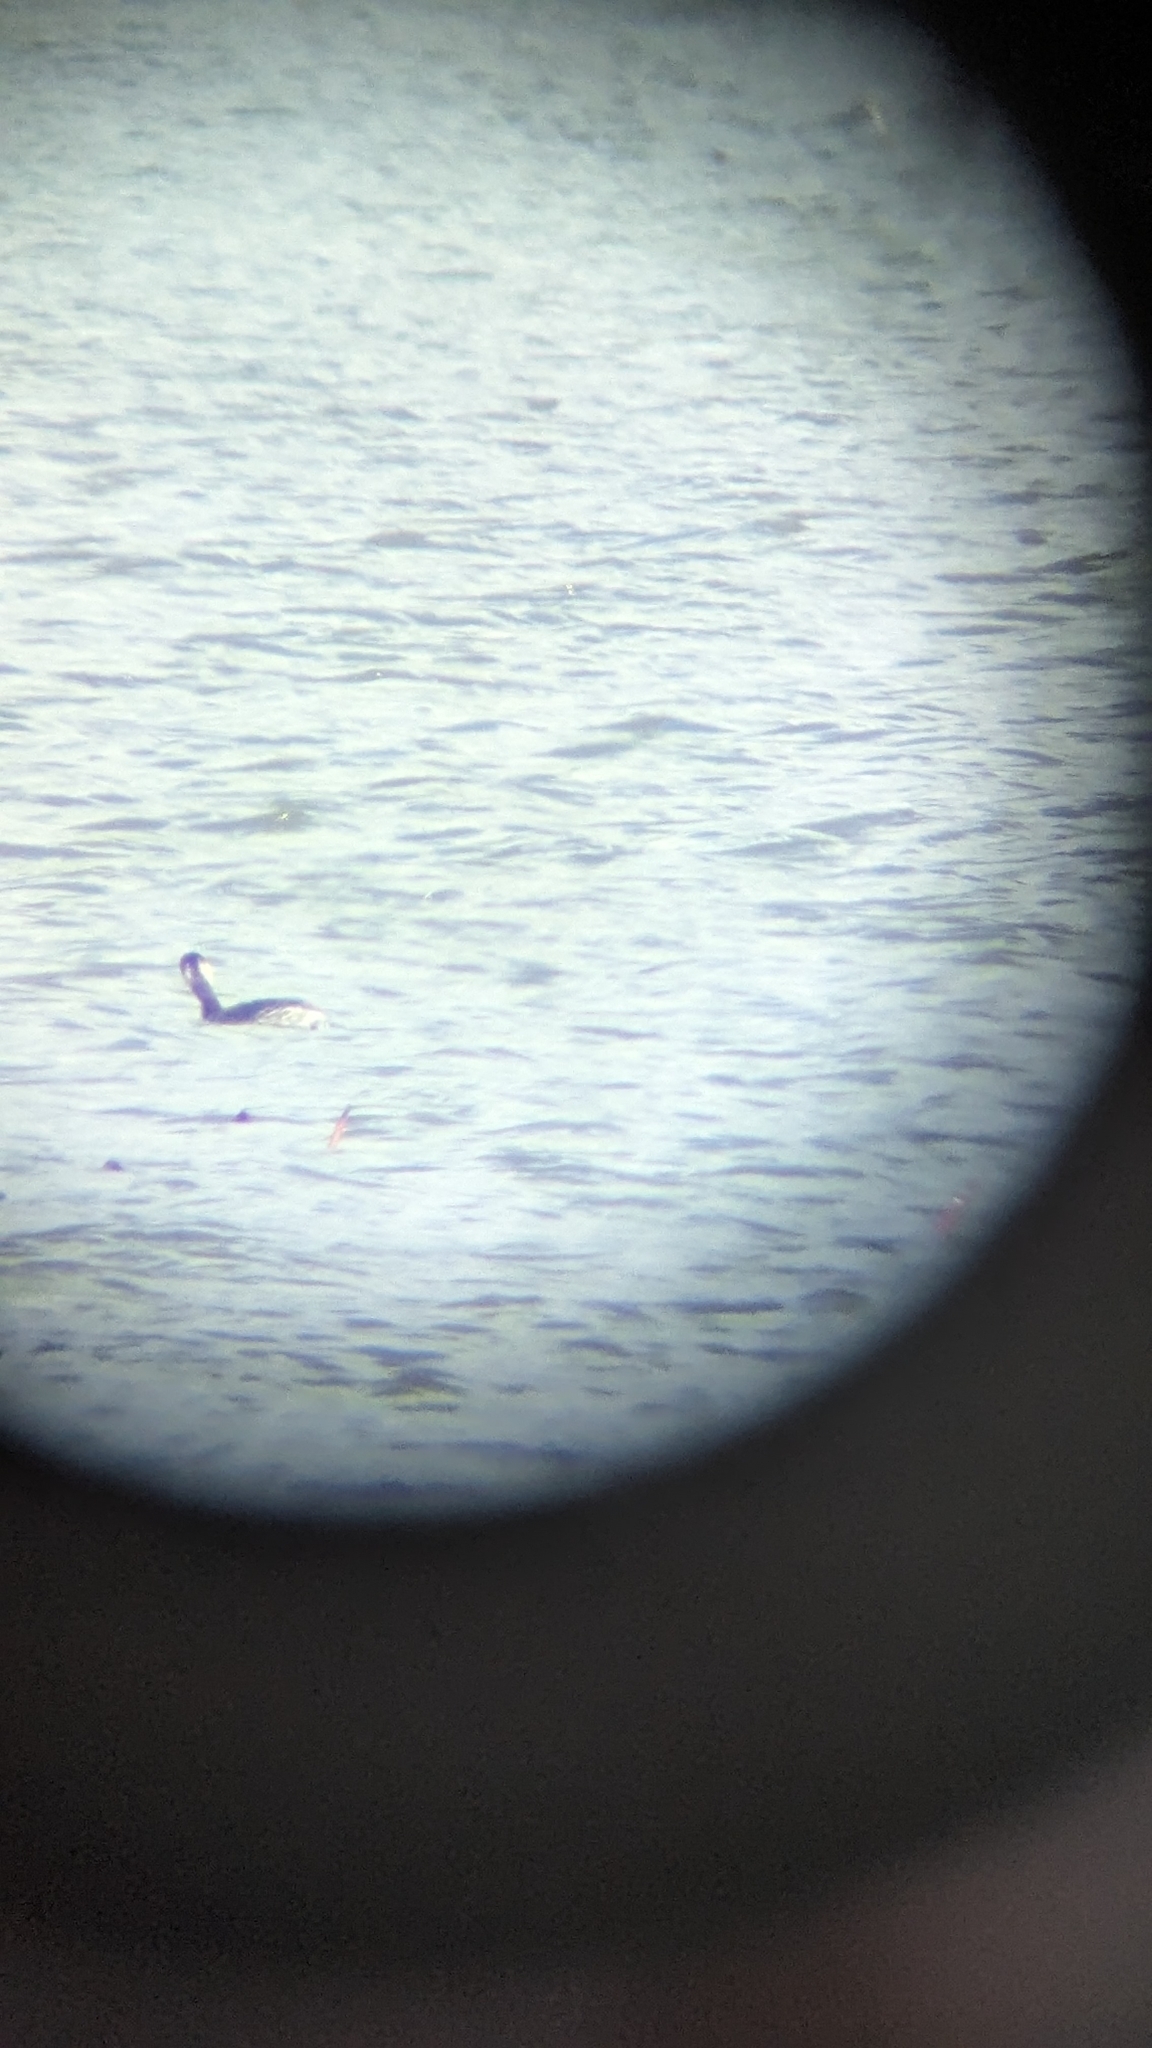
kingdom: Animalia
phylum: Chordata
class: Aves
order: Podicipediformes
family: Podicipedidae
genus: Podiceps
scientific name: Podiceps auritus
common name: Horned grebe
